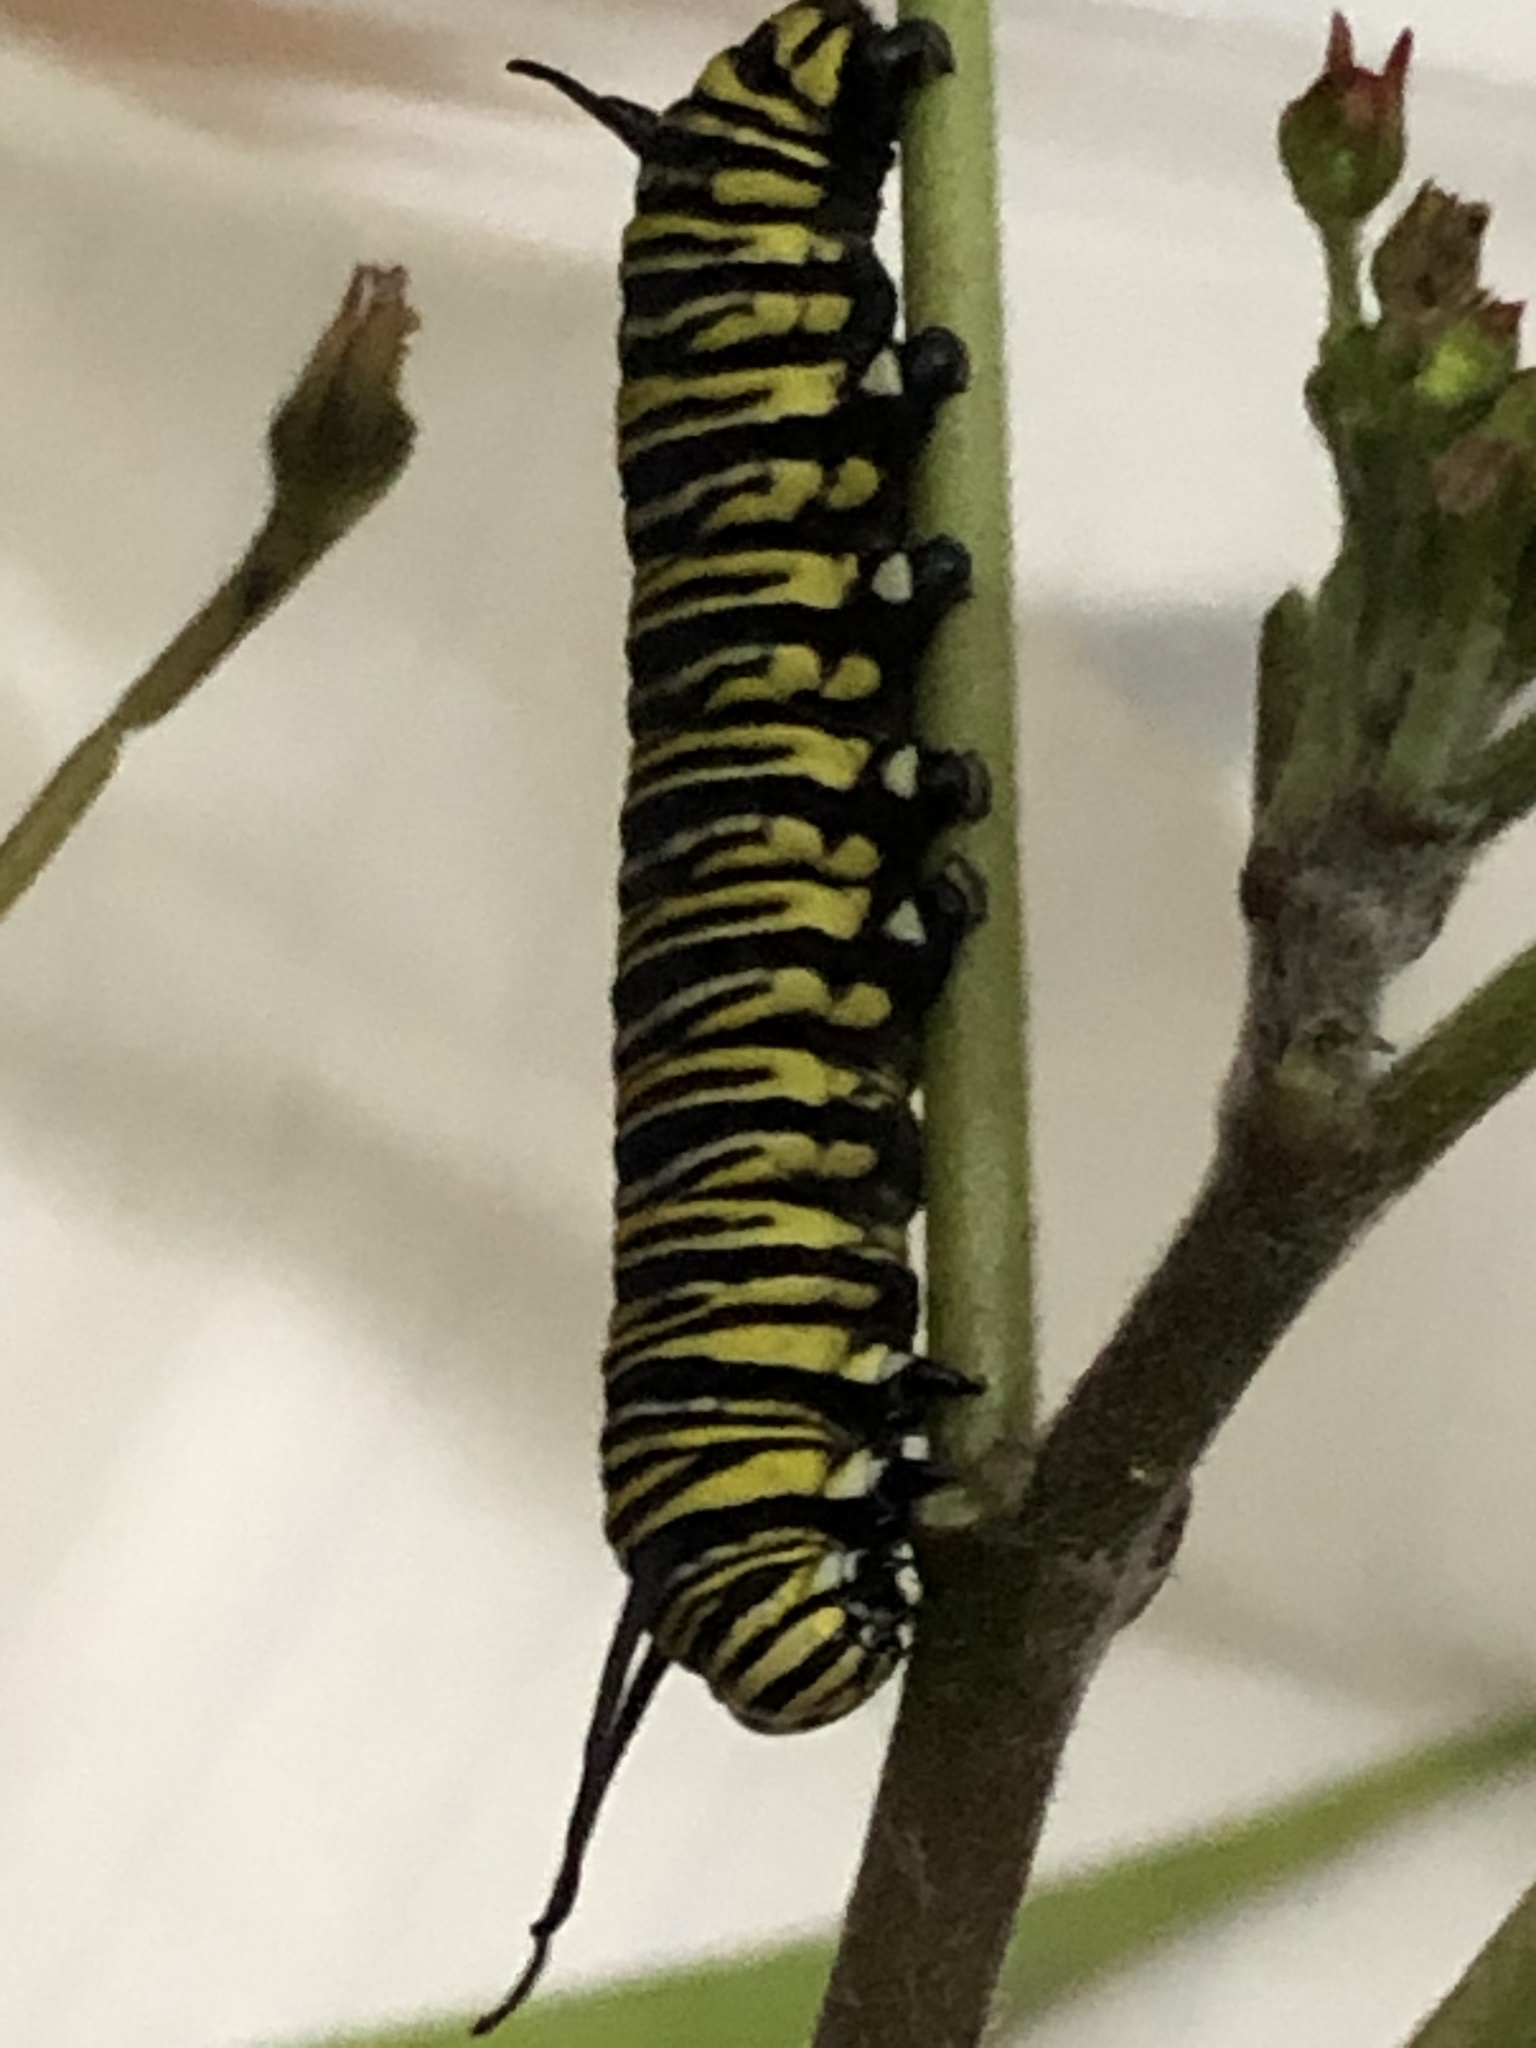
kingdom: Animalia
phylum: Arthropoda
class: Insecta
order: Lepidoptera
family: Nymphalidae
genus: Danaus
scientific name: Danaus plexippus
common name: Monarch
